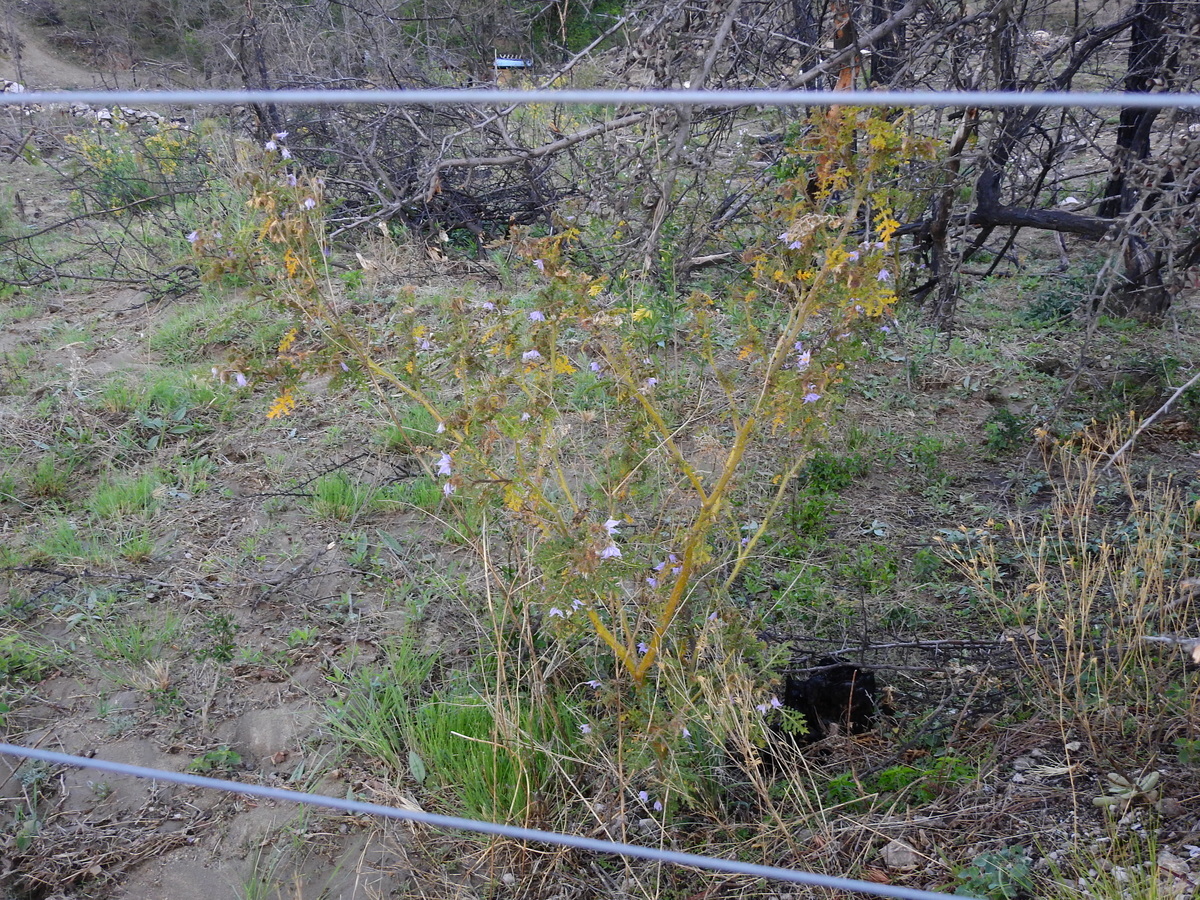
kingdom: Plantae
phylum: Tracheophyta
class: Magnoliopsida
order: Solanales
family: Solanaceae
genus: Solanum
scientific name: Solanum sisymbriifolium
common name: Red buffalo-bur
